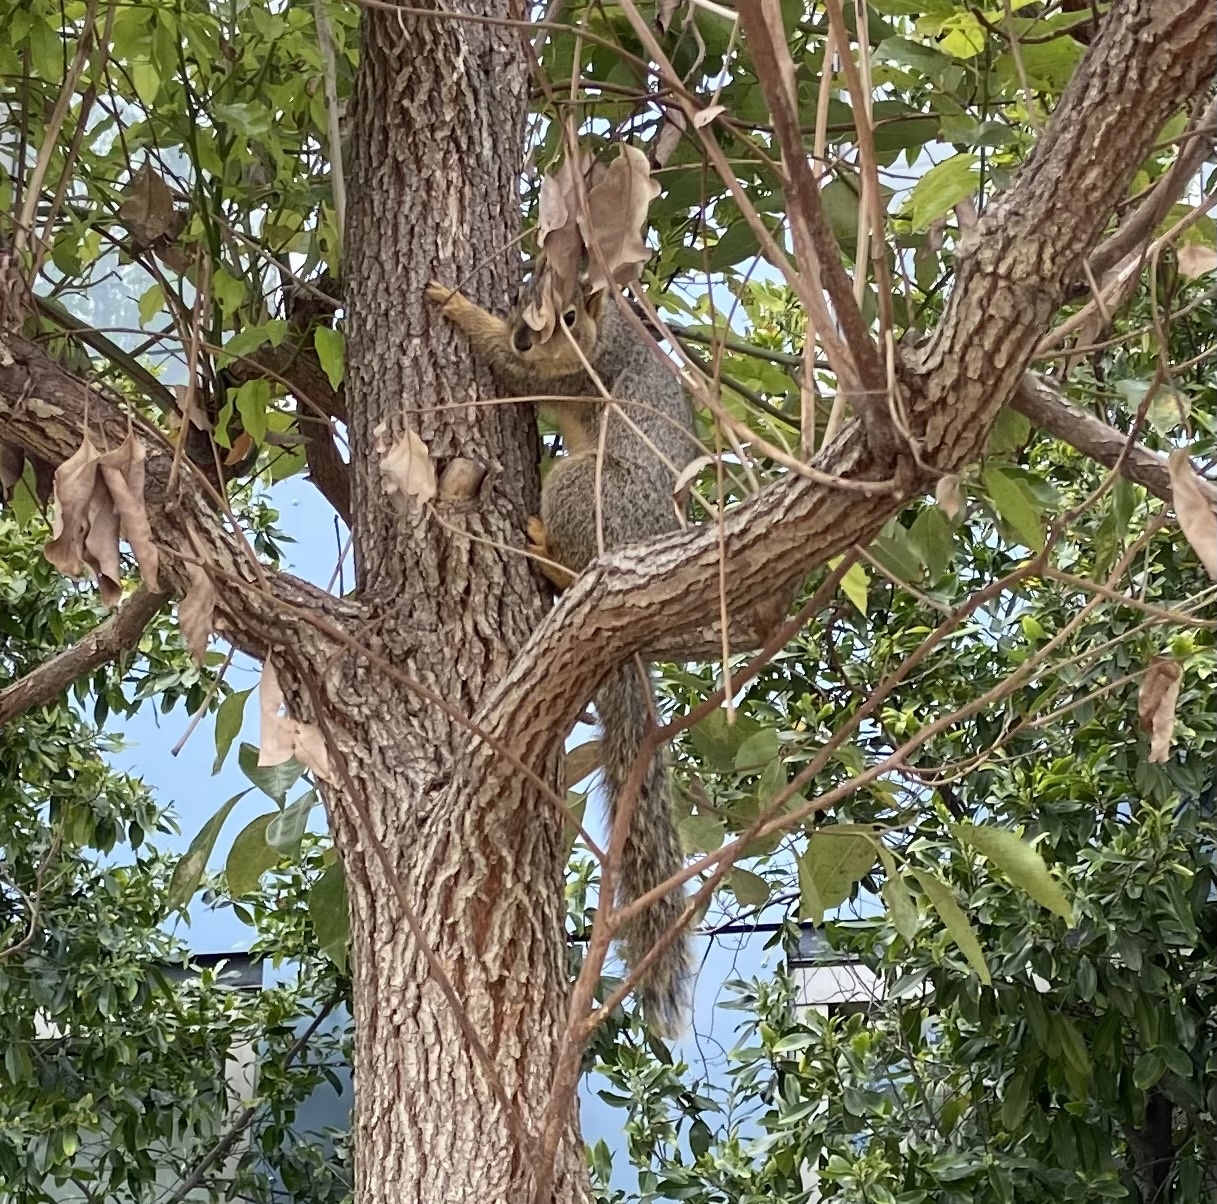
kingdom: Animalia
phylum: Chordata
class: Mammalia
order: Rodentia
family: Sciuridae
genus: Sciurus
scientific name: Sciurus niger
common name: Fox squirrel
